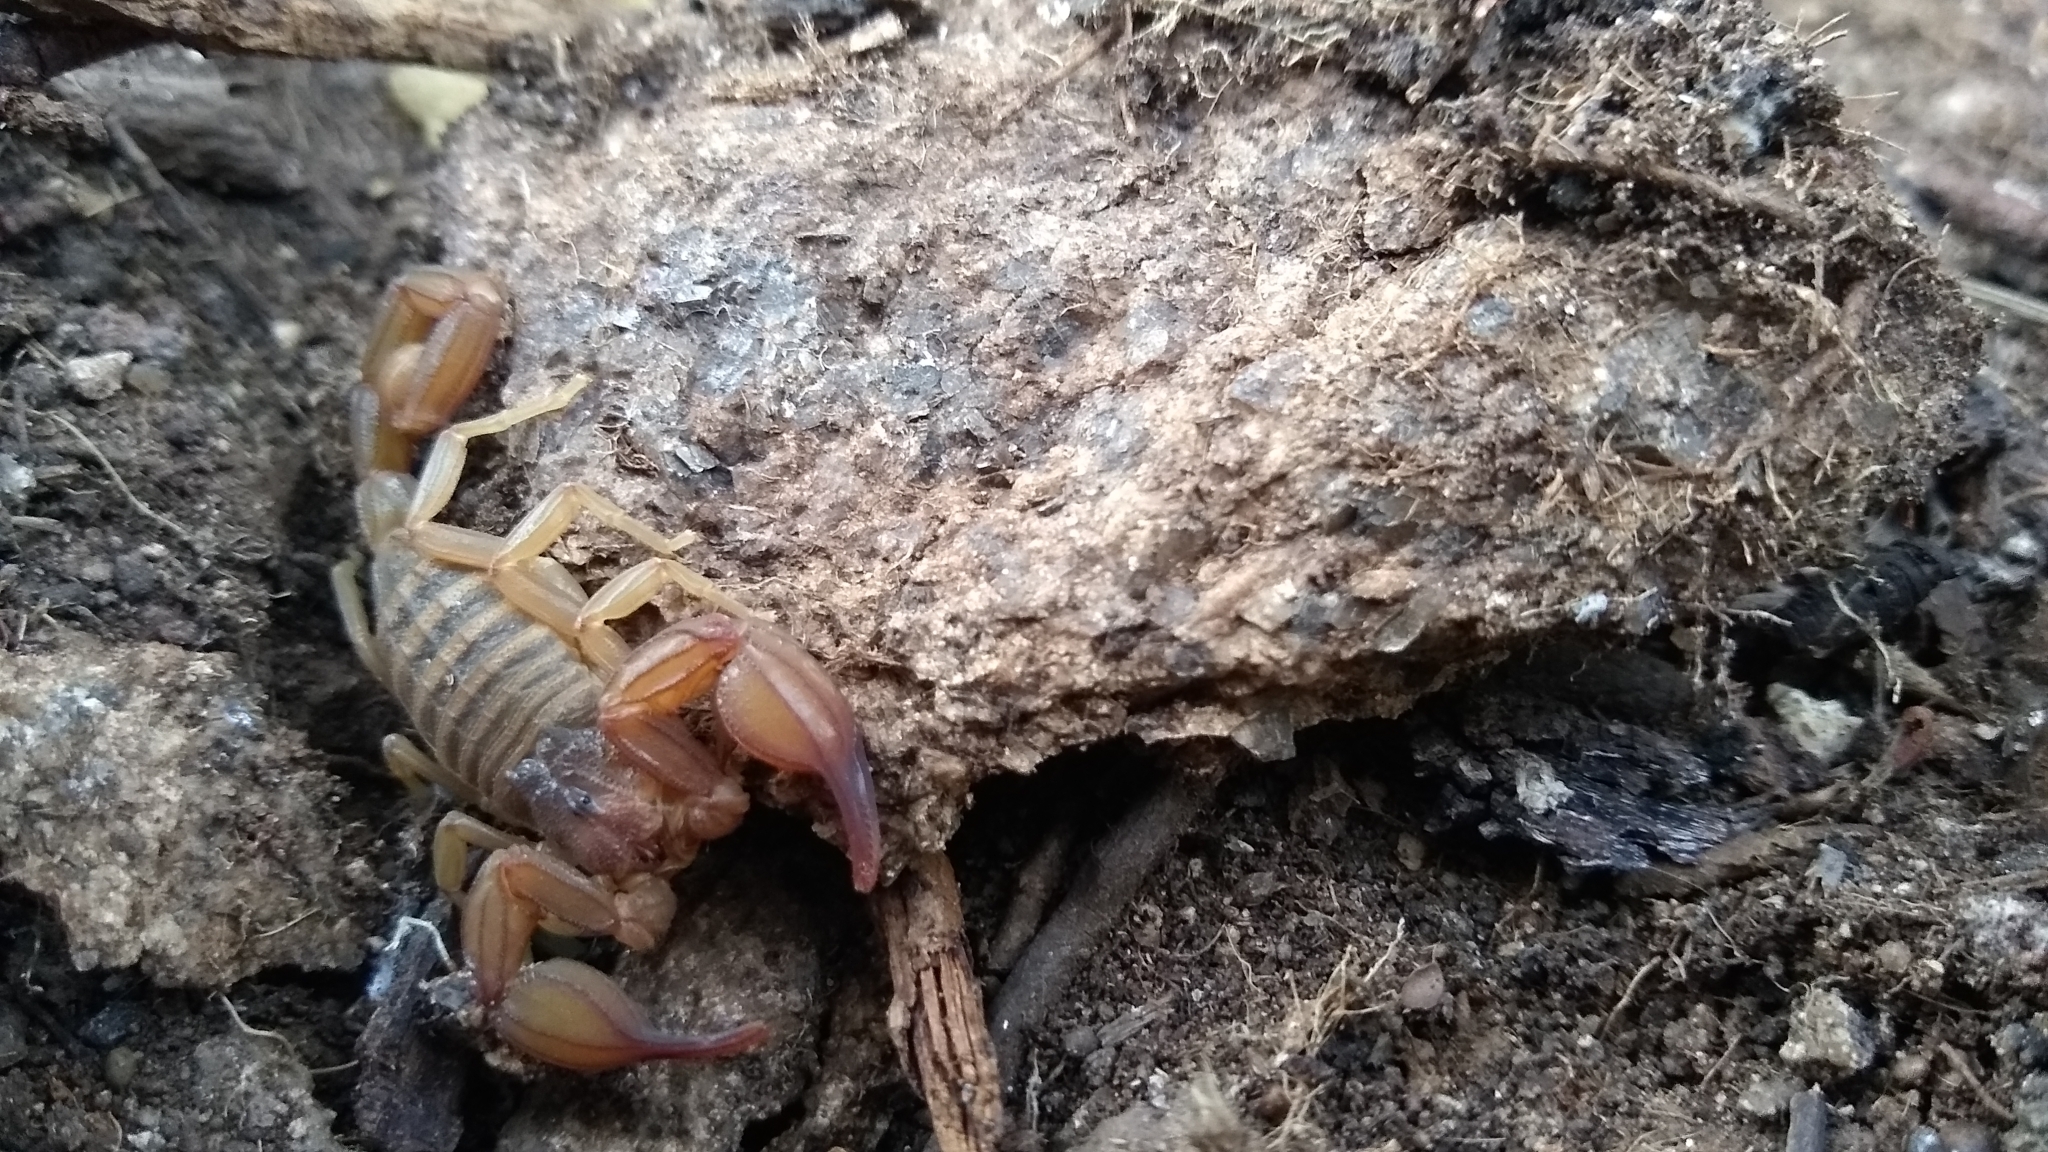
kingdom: Animalia
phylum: Arthropoda
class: Arachnida
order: Scorpiones
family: Buthidae
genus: Zabius
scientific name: Zabius fuscus
